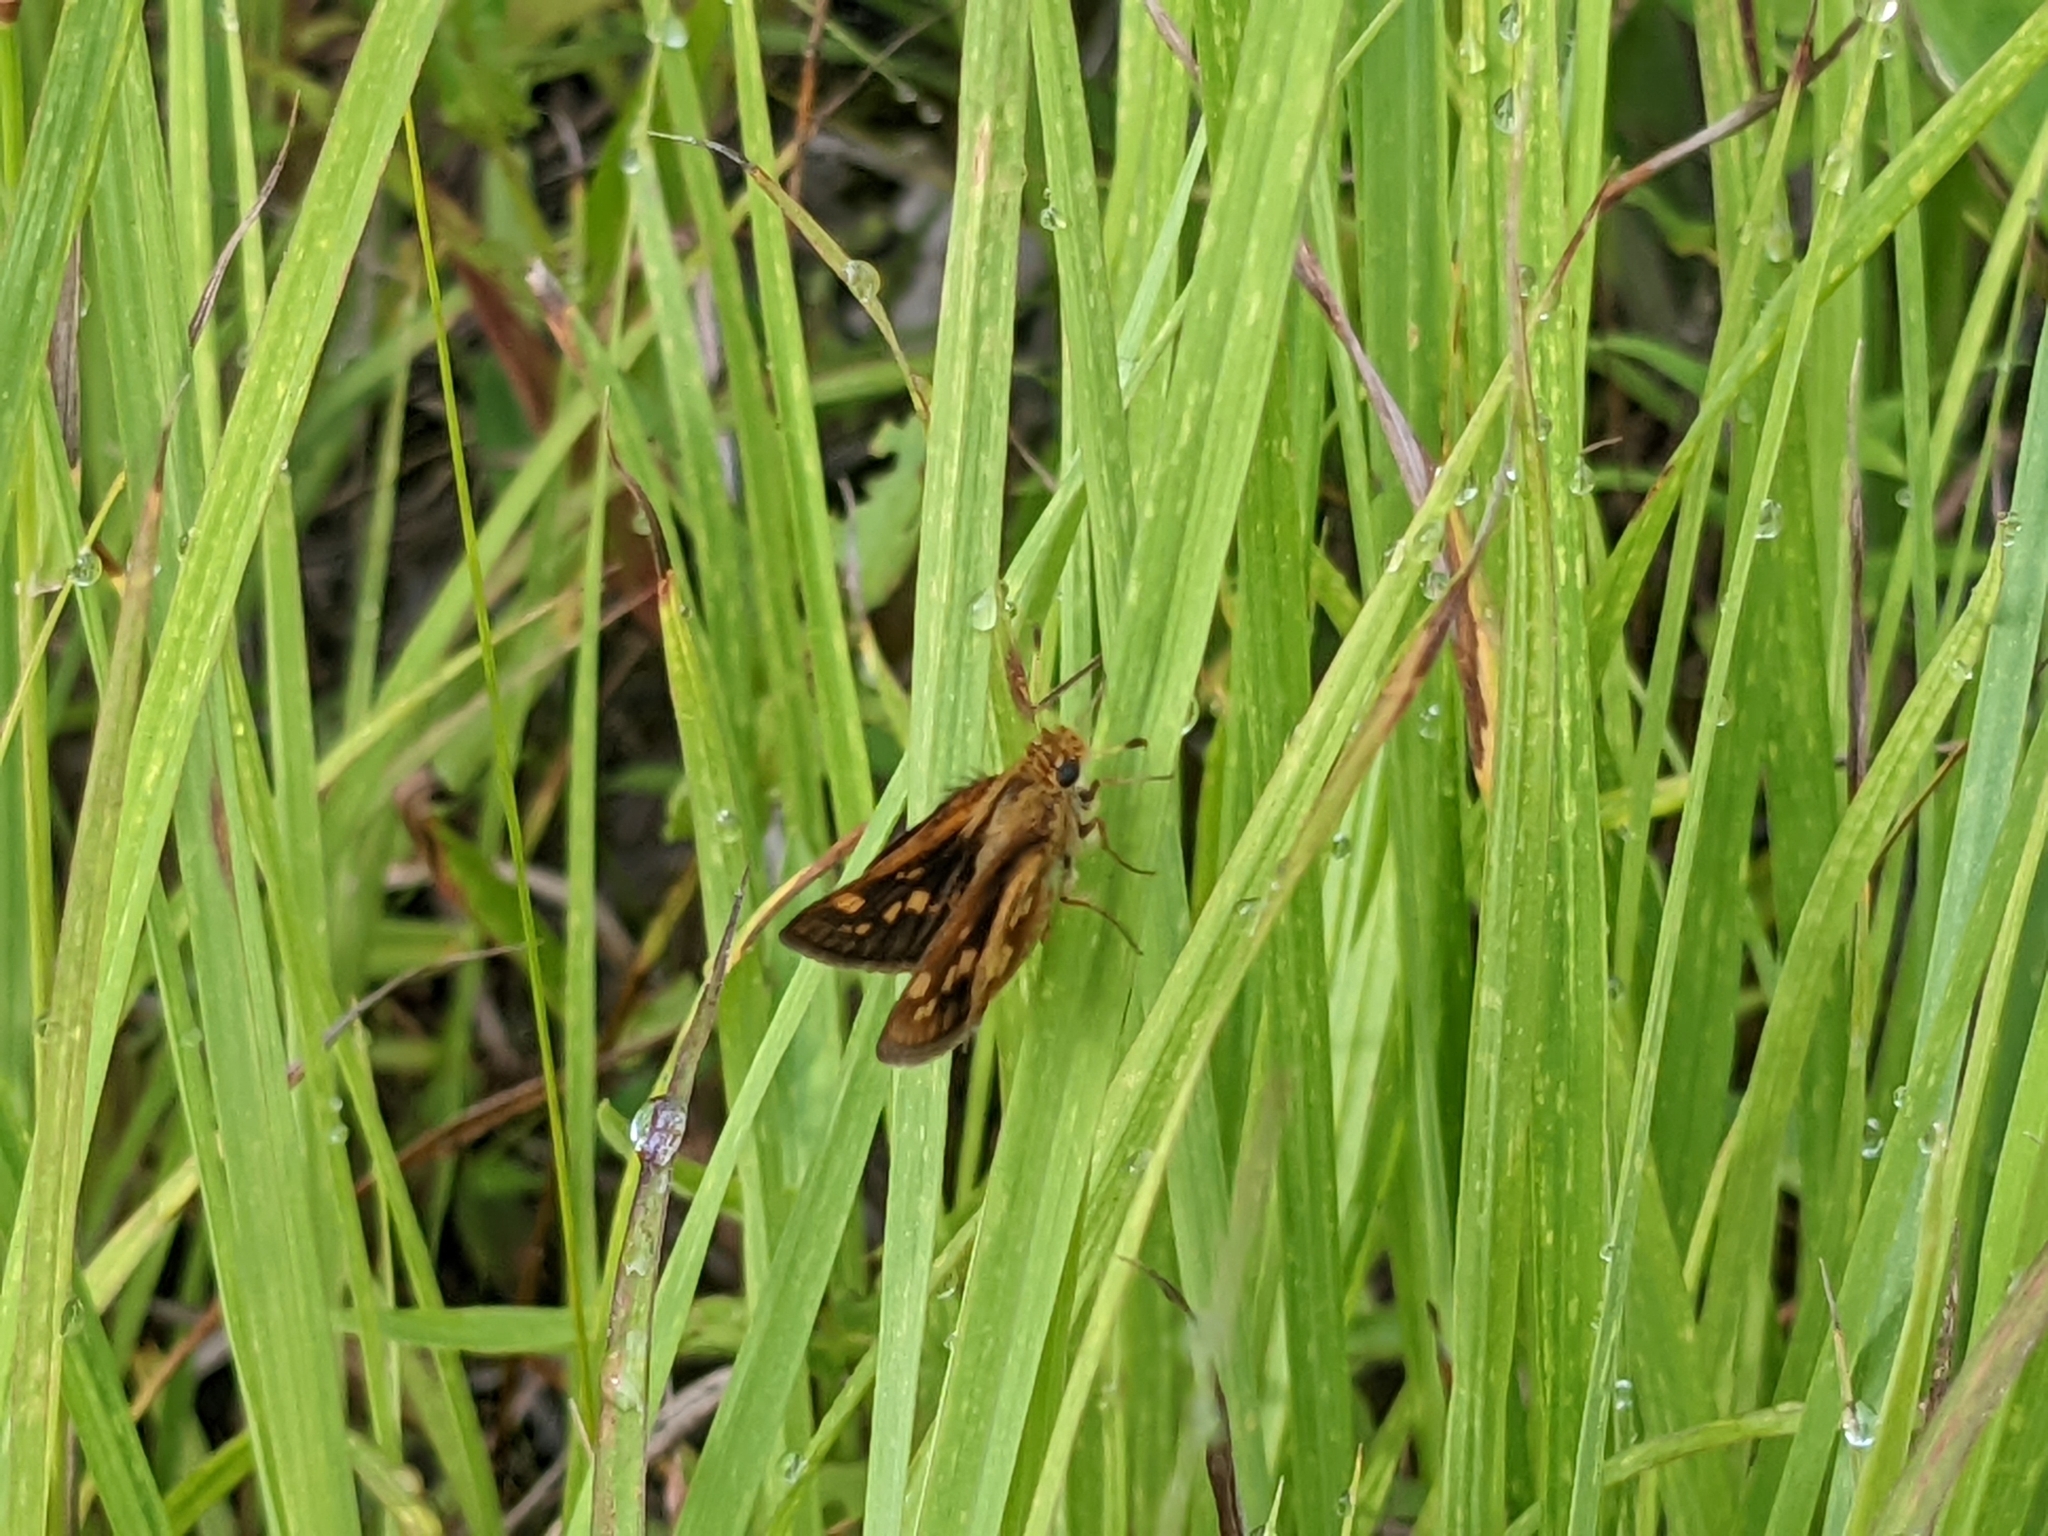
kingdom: Animalia
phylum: Arthropoda
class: Insecta
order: Lepidoptera
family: Hesperiidae
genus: Polites
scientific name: Polites coras
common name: Peck's skipper
